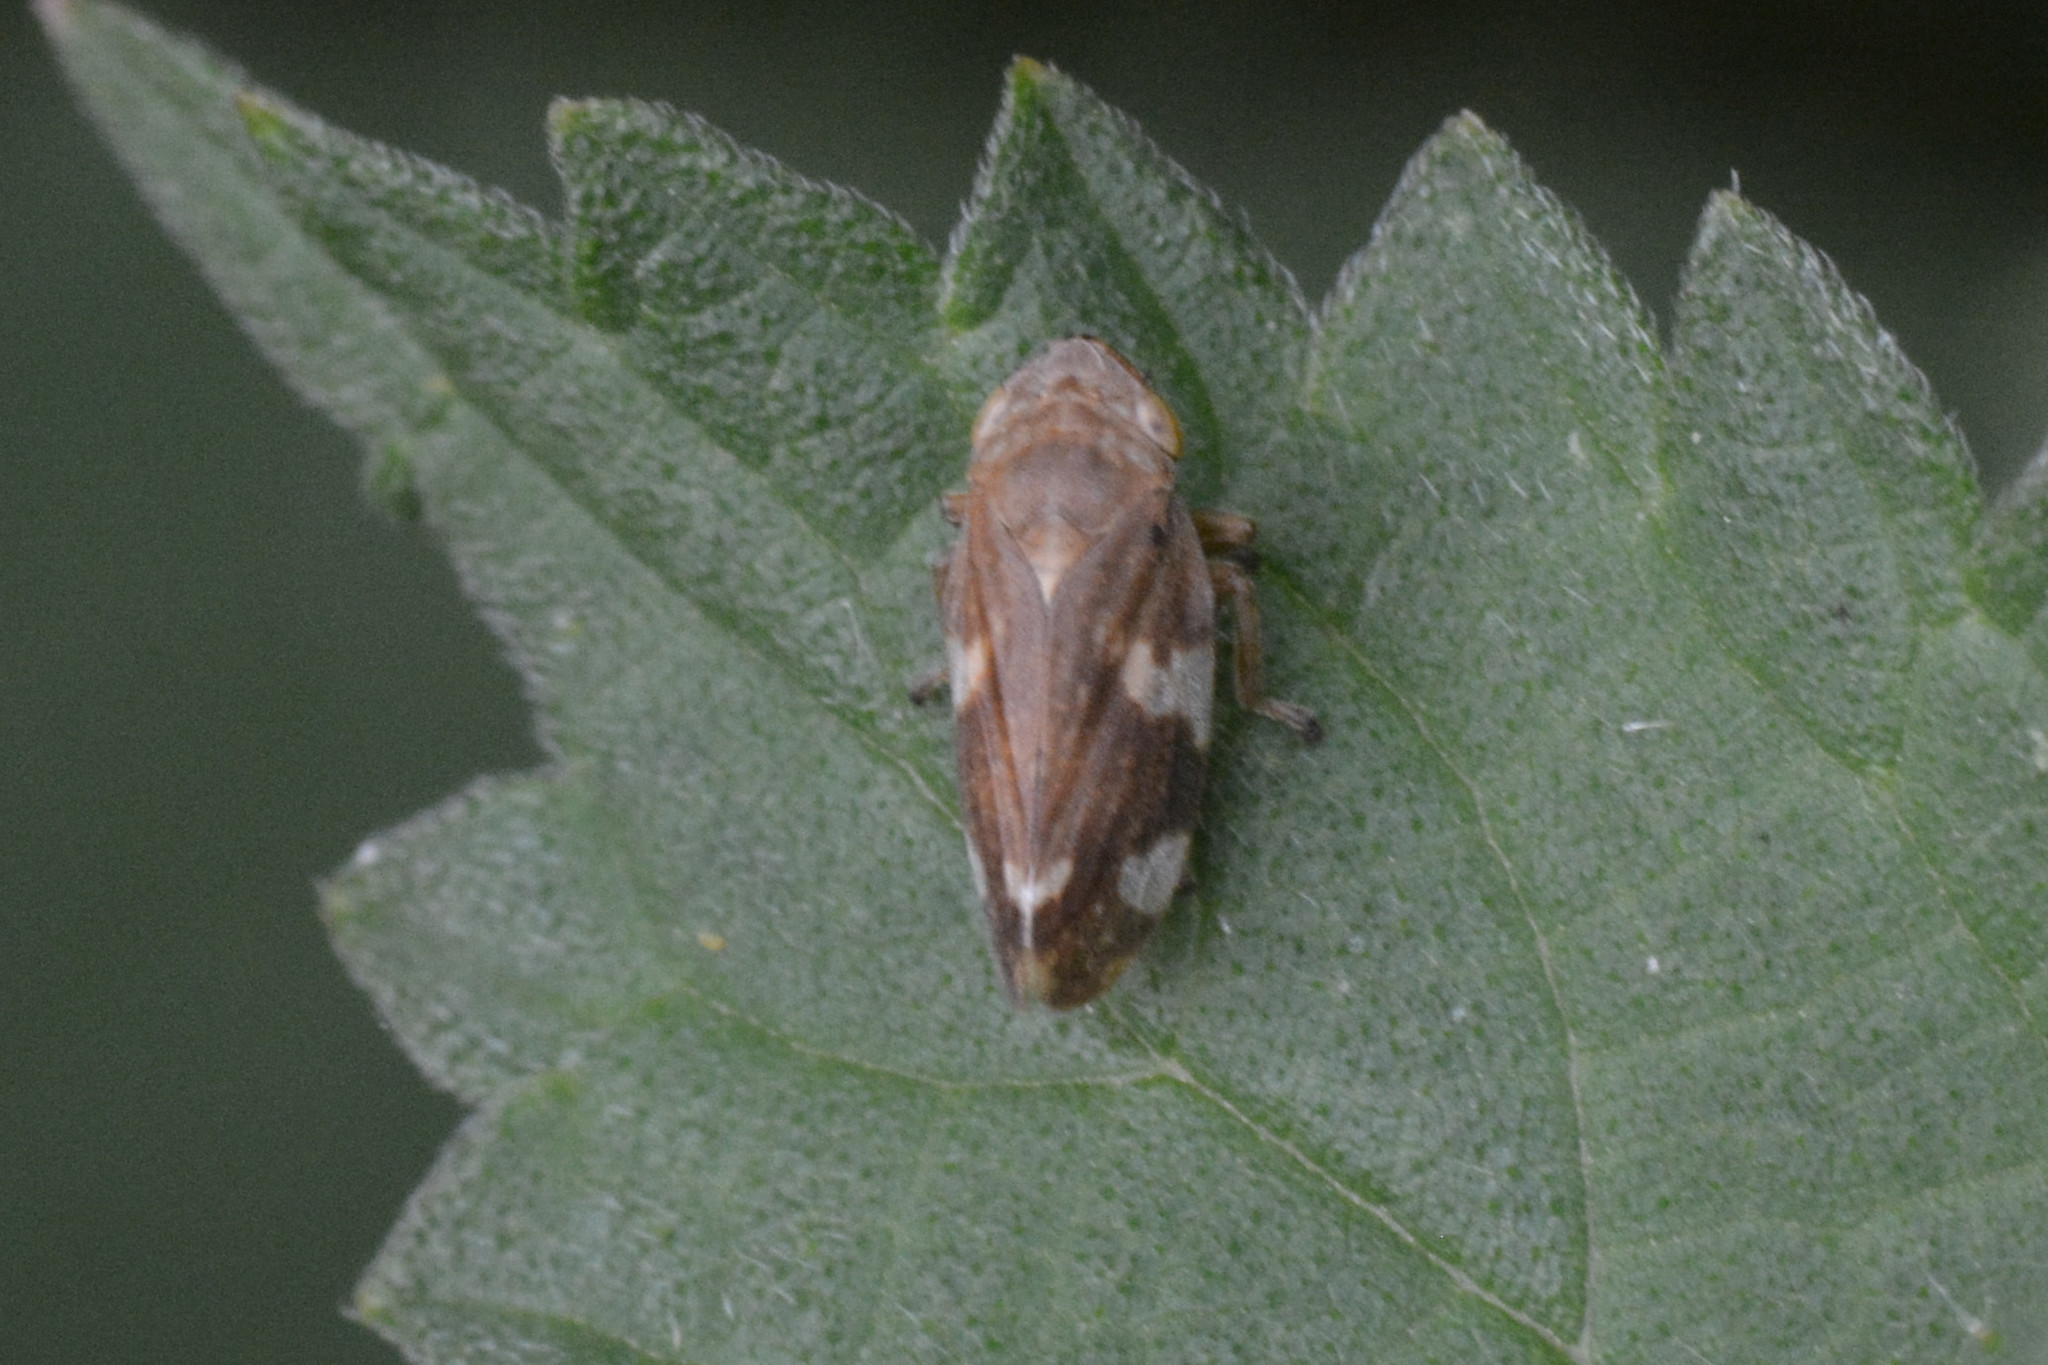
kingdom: Animalia
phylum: Arthropoda
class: Insecta
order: Hemiptera
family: Aphrophoridae
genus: Philaenus
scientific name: Philaenus spumarius
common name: Meadow spittlebug
